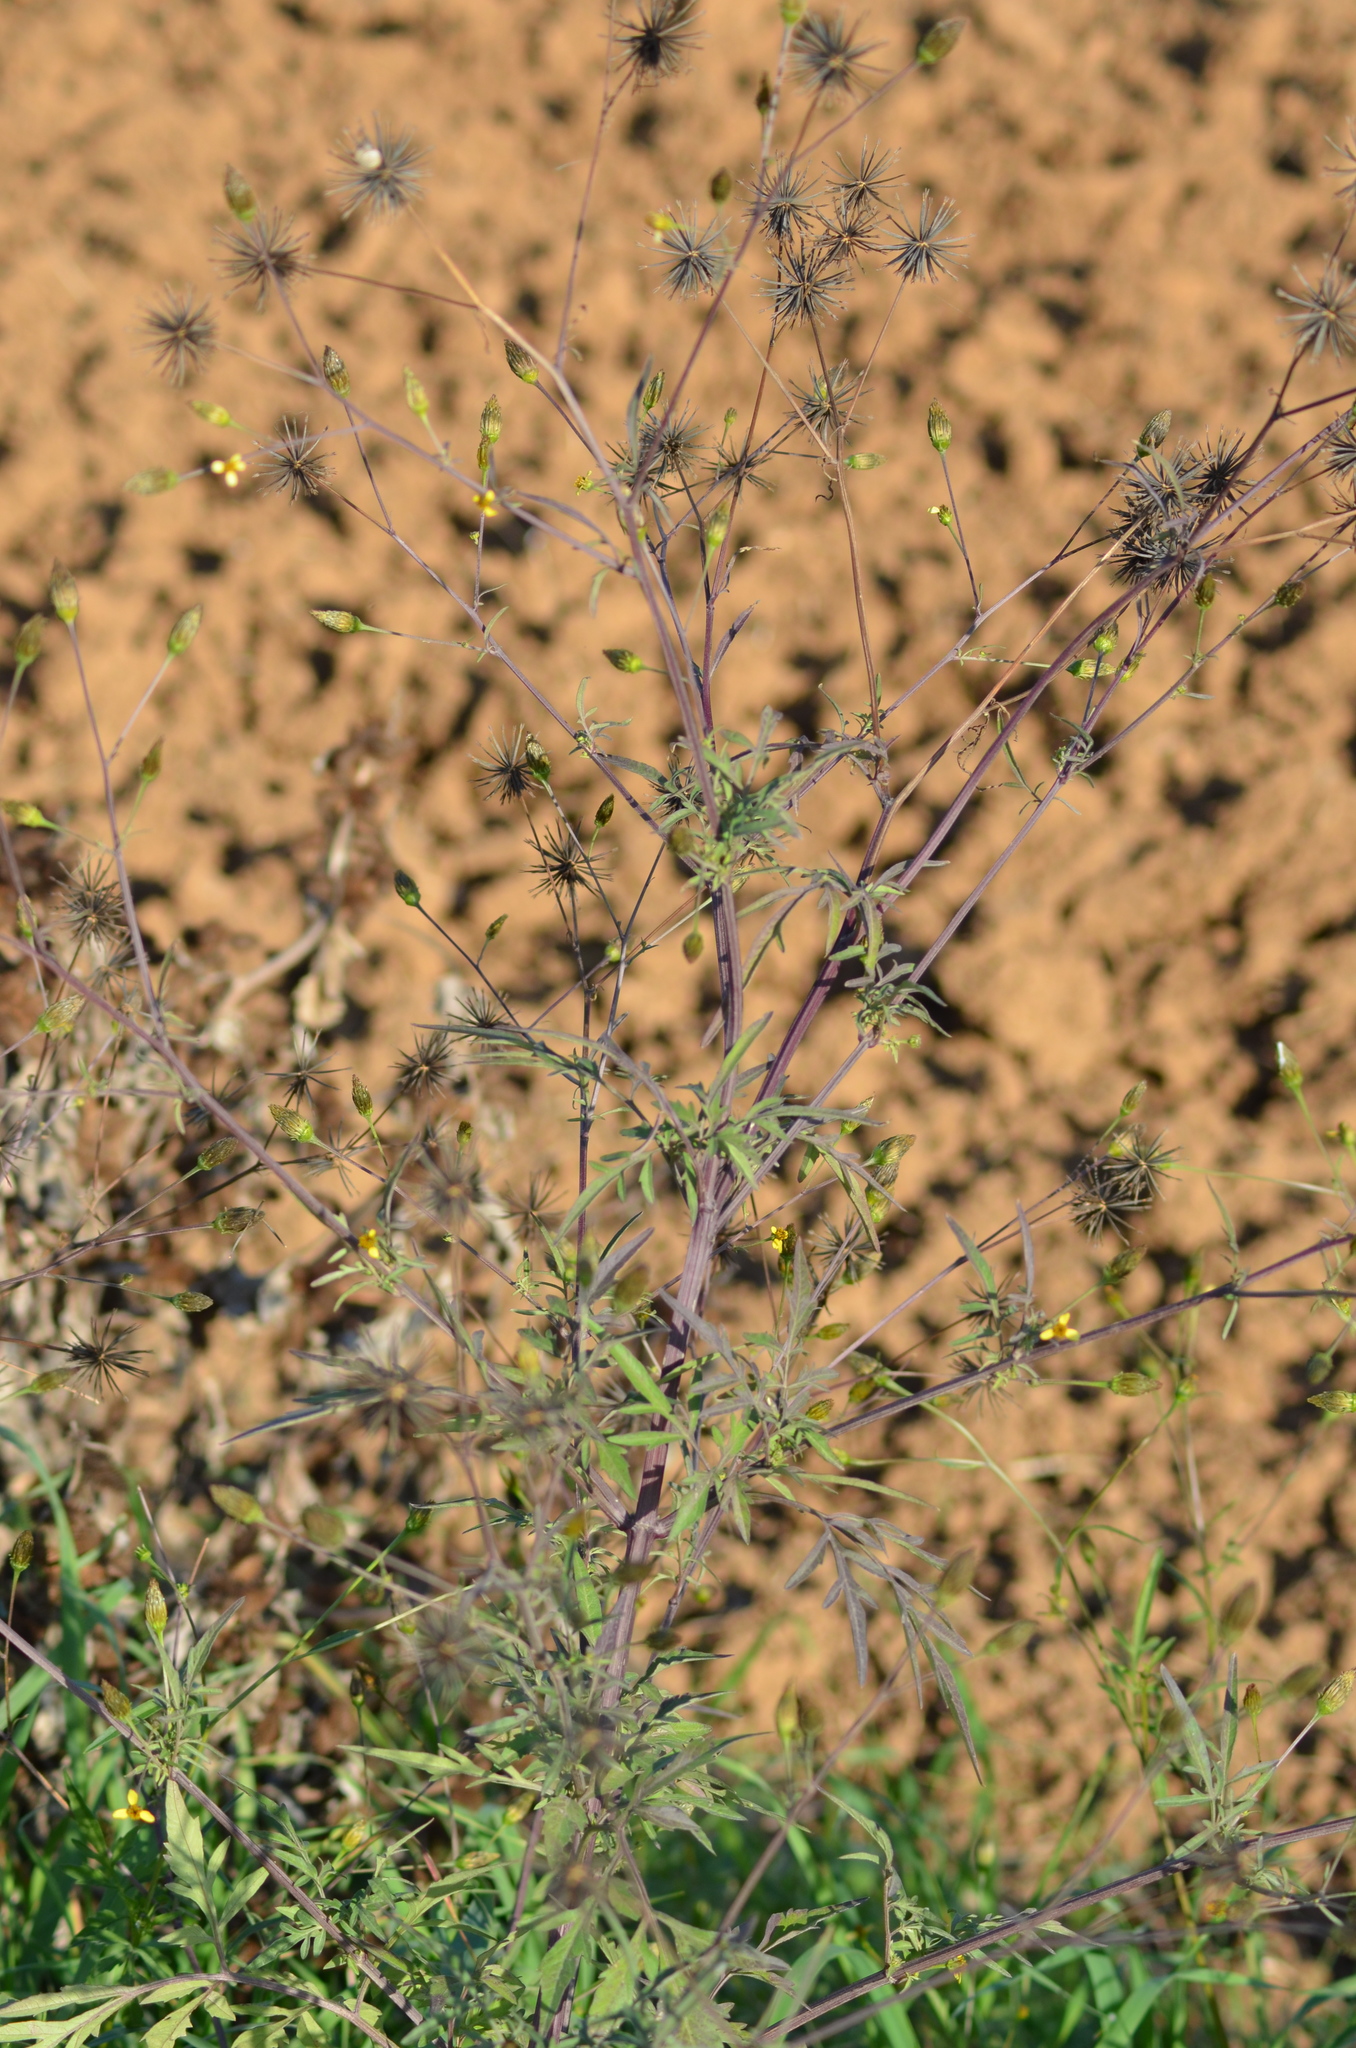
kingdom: Plantae
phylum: Tracheophyta
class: Magnoliopsida
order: Asterales
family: Asteraceae
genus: Bidens
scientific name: Bidens subalternans
